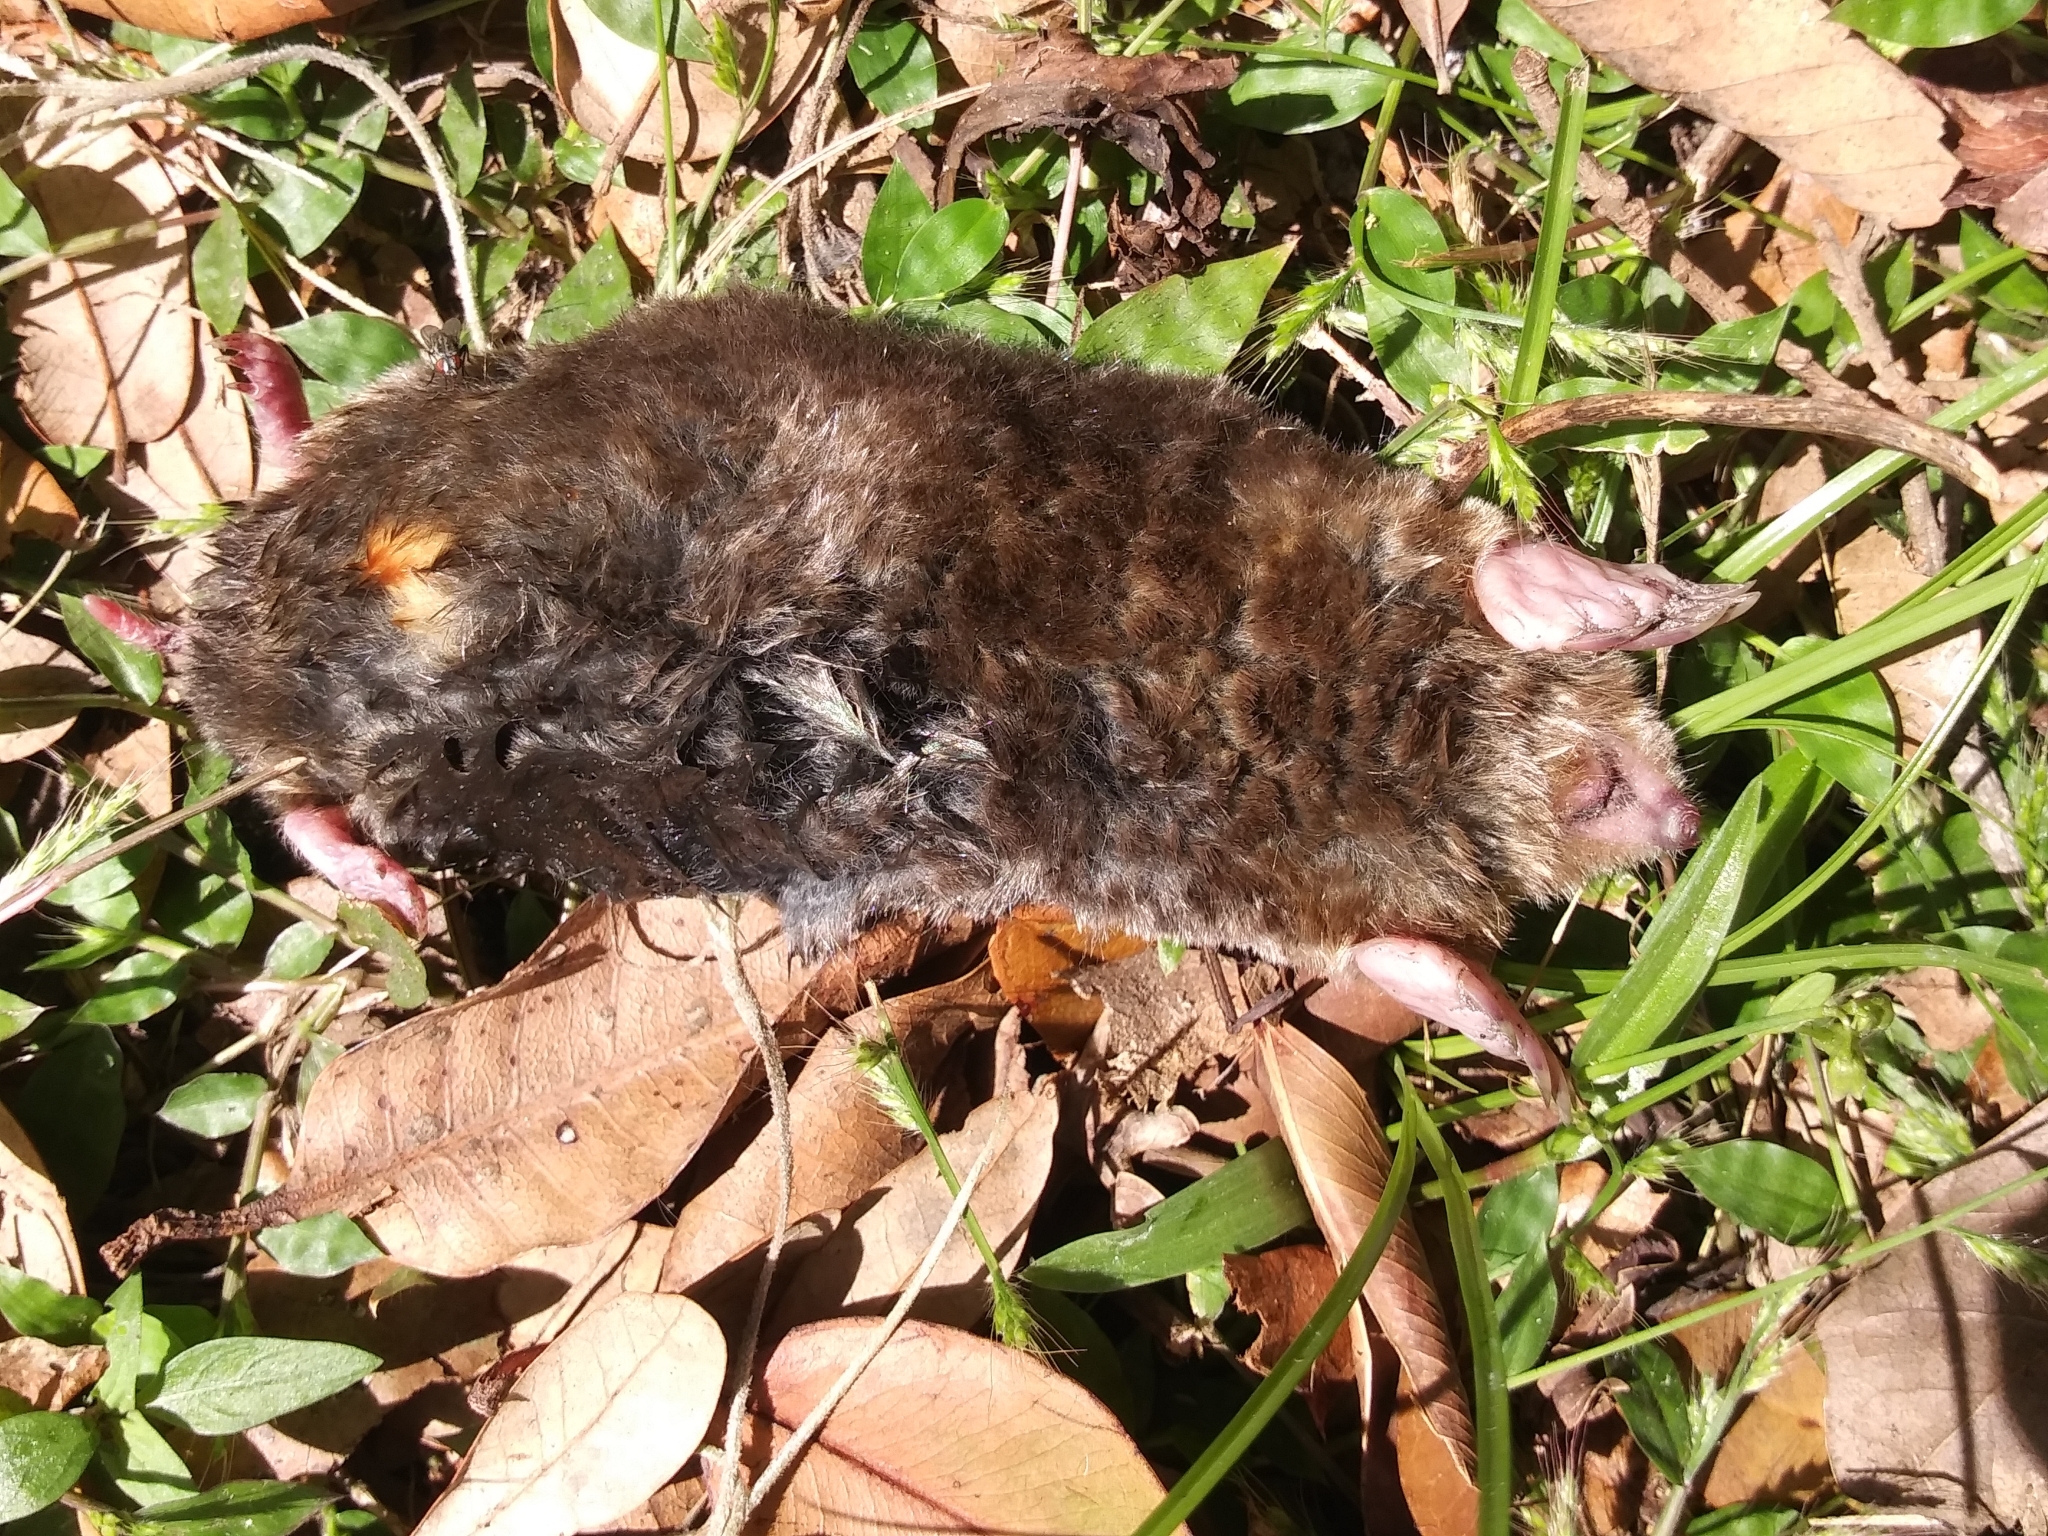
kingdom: Animalia
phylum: Chordata
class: Mammalia
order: Soricomorpha
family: Talpidae
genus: Scalopus
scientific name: Scalopus aquaticus
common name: Eastern mole
